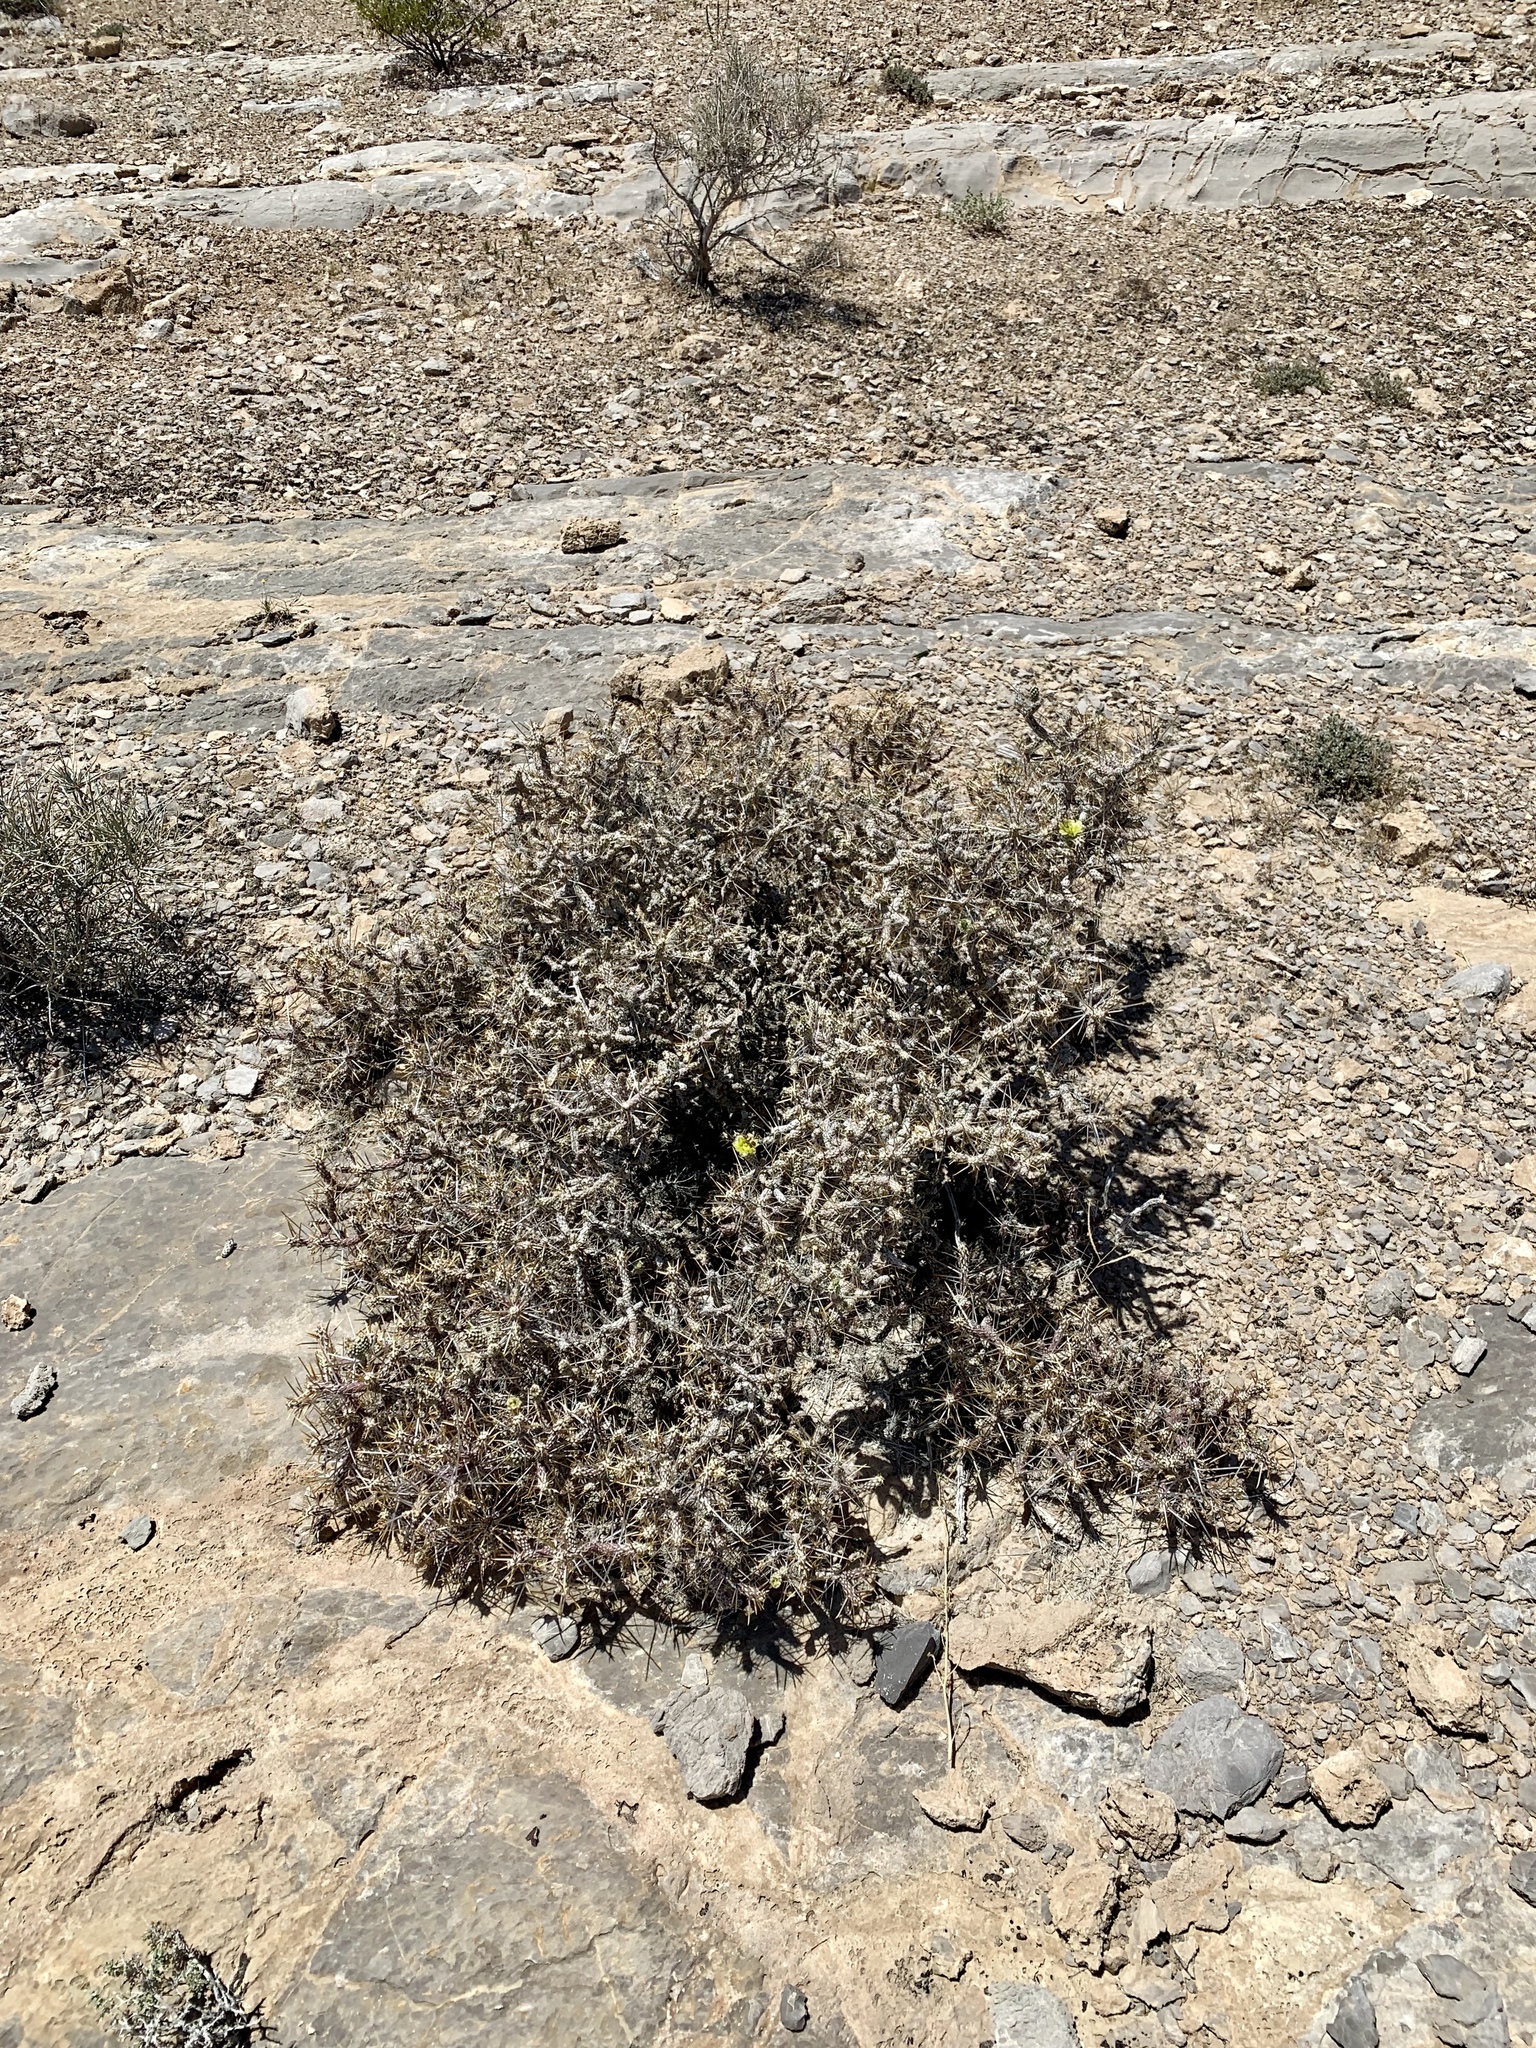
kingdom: Plantae
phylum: Tracheophyta
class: Magnoliopsida
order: Caryophyllales
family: Cactaceae
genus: Cylindropuntia
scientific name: Cylindropuntia ramosissima
